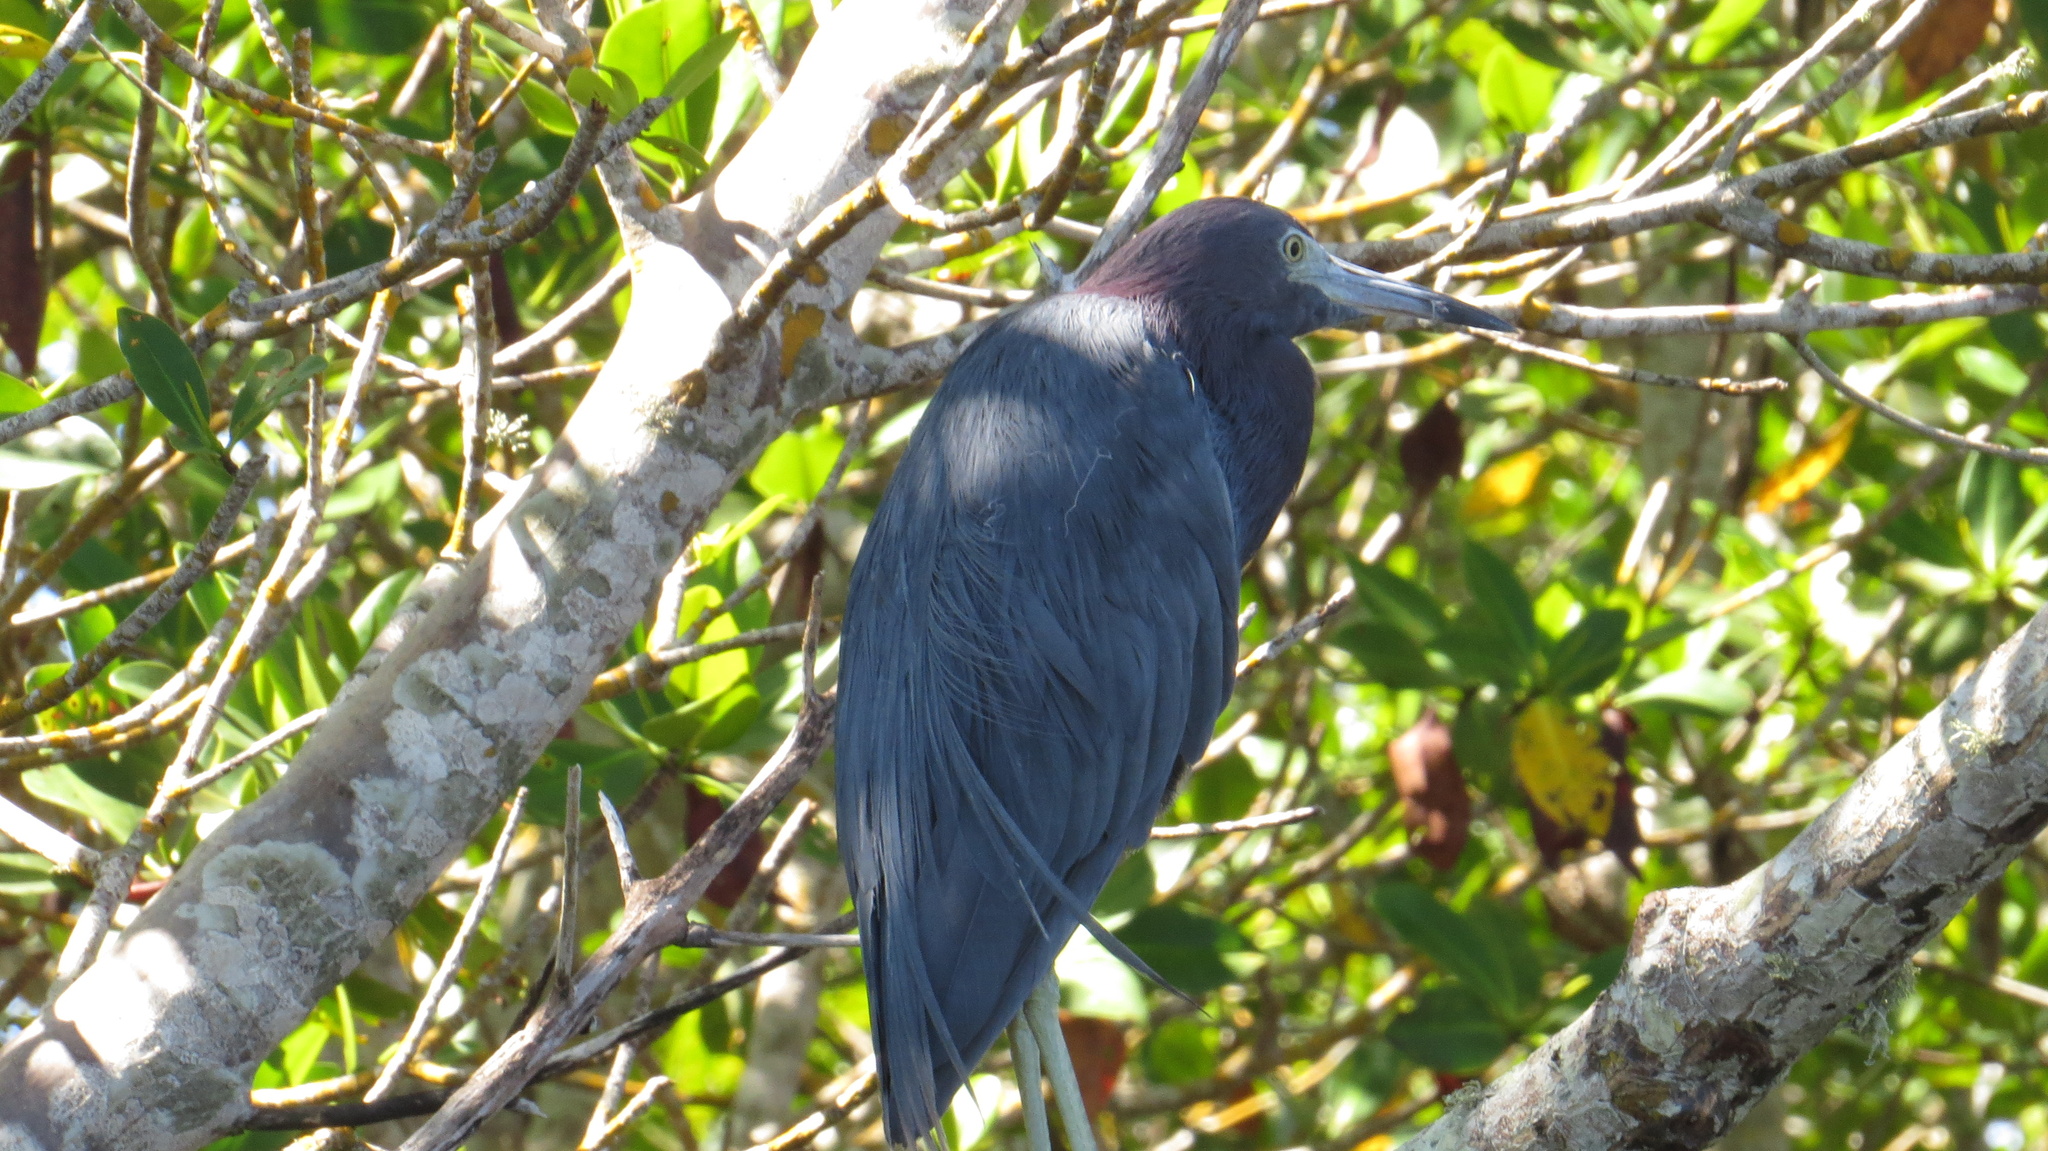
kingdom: Animalia
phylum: Chordata
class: Aves
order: Pelecaniformes
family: Ardeidae
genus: Egretta
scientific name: Egretta caerulea
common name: Little blue heron
